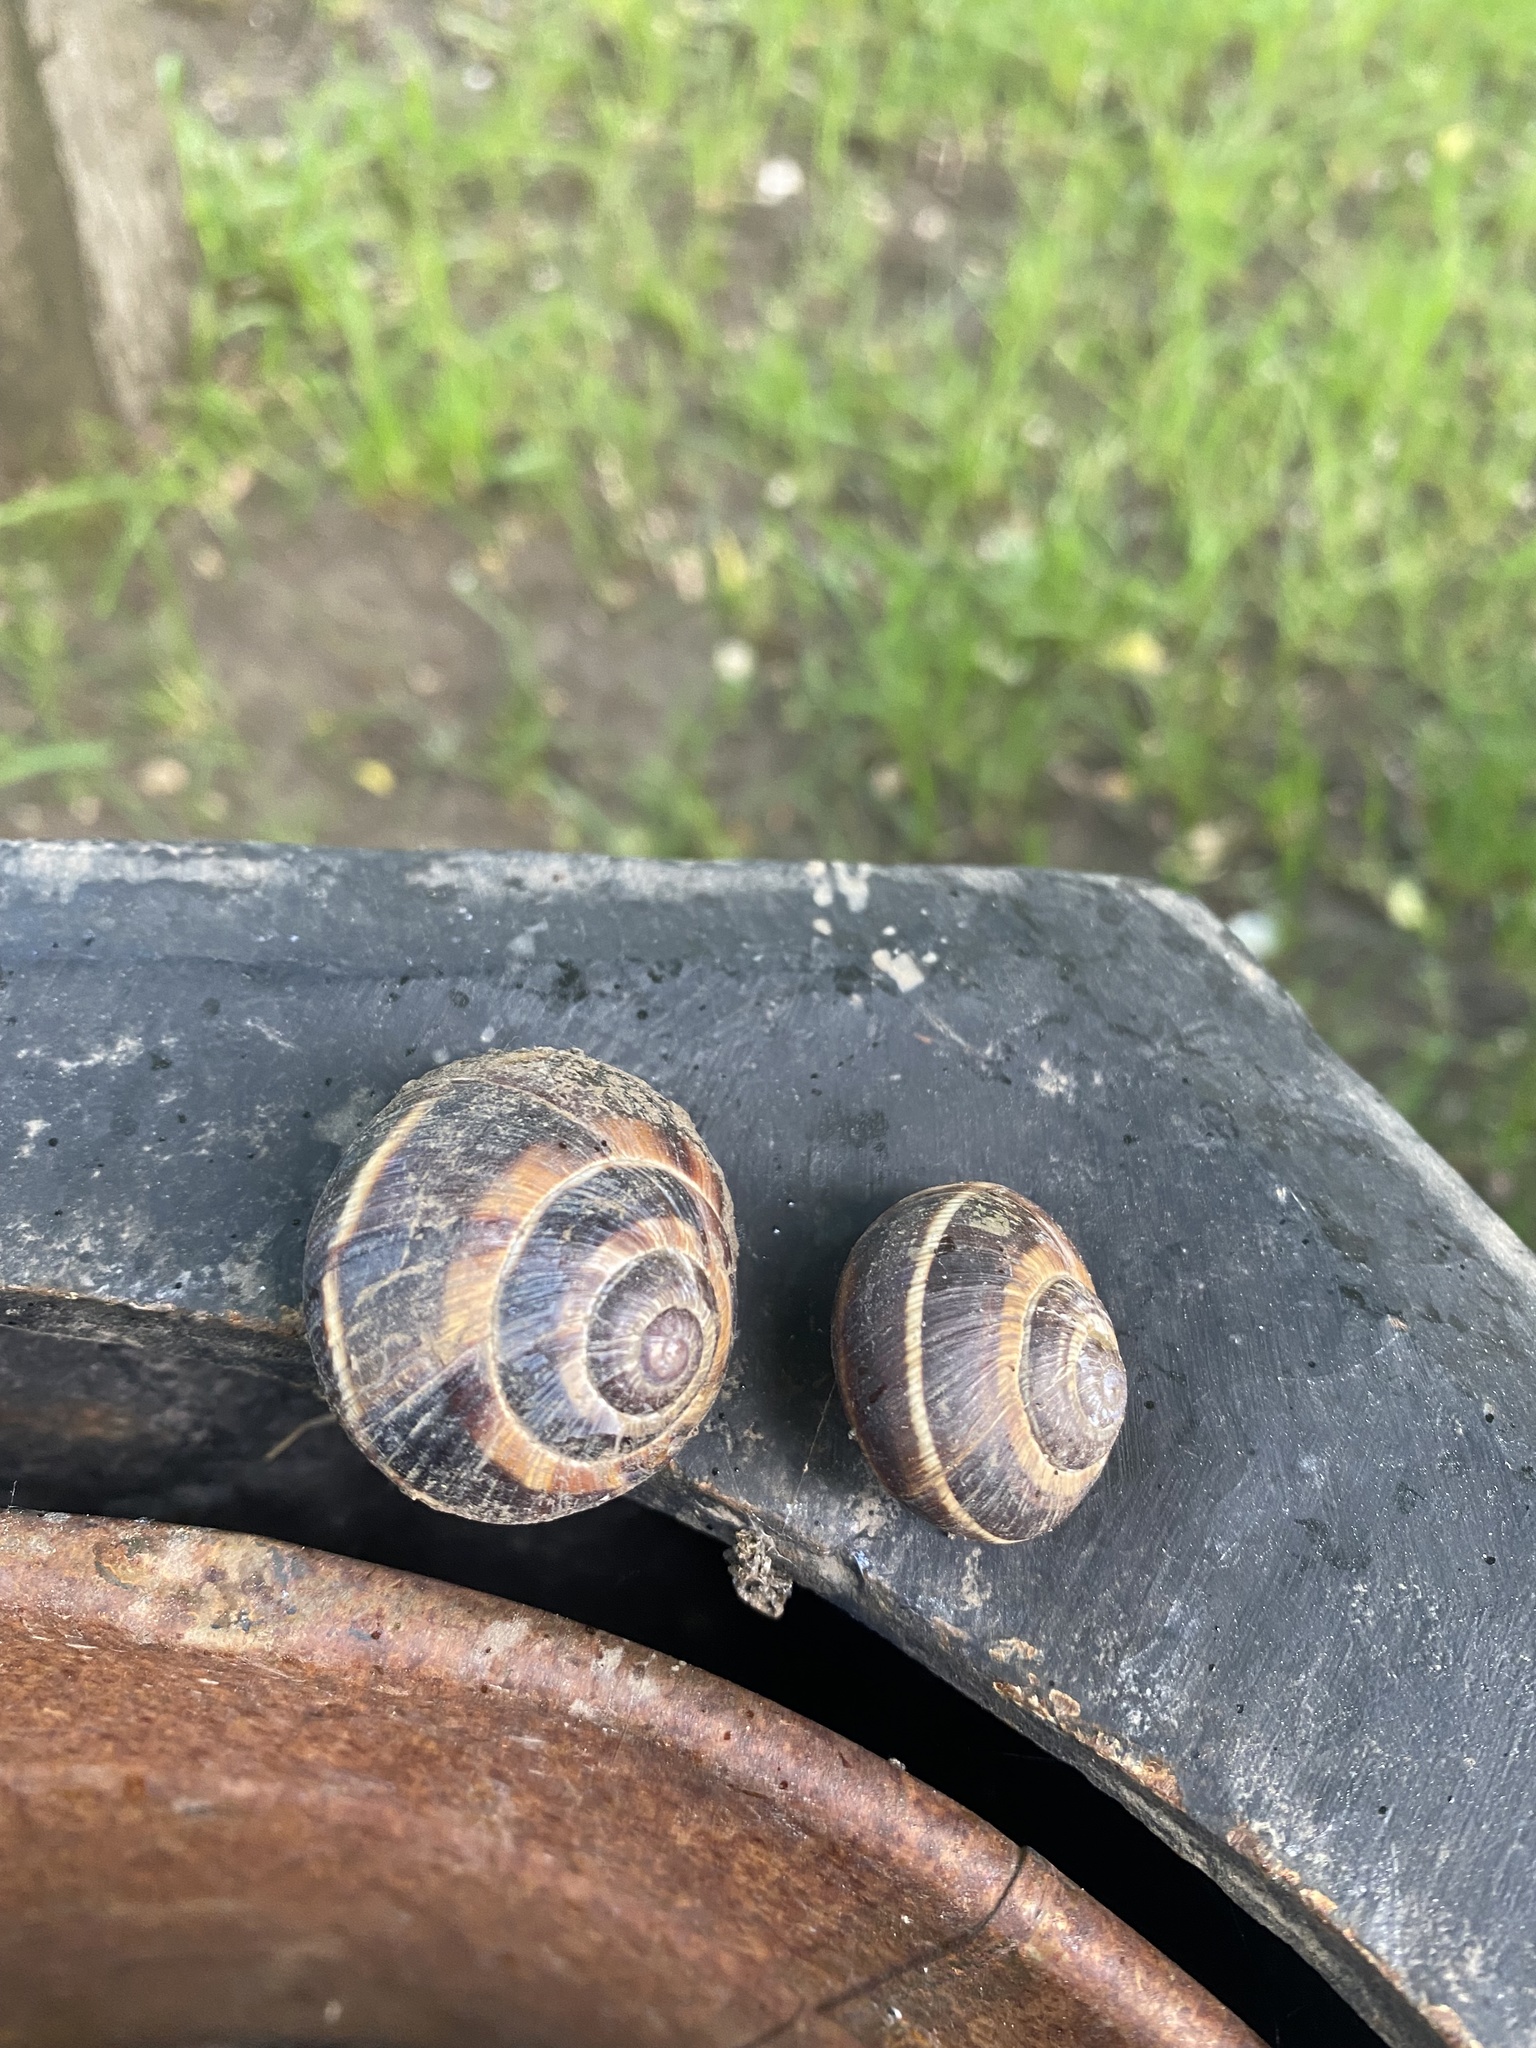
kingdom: Animalia
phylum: Mollusca
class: Gastropoda
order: Stylommatophora
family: Helicidae
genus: Helix
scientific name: Helix lucorum
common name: Turkish snail
